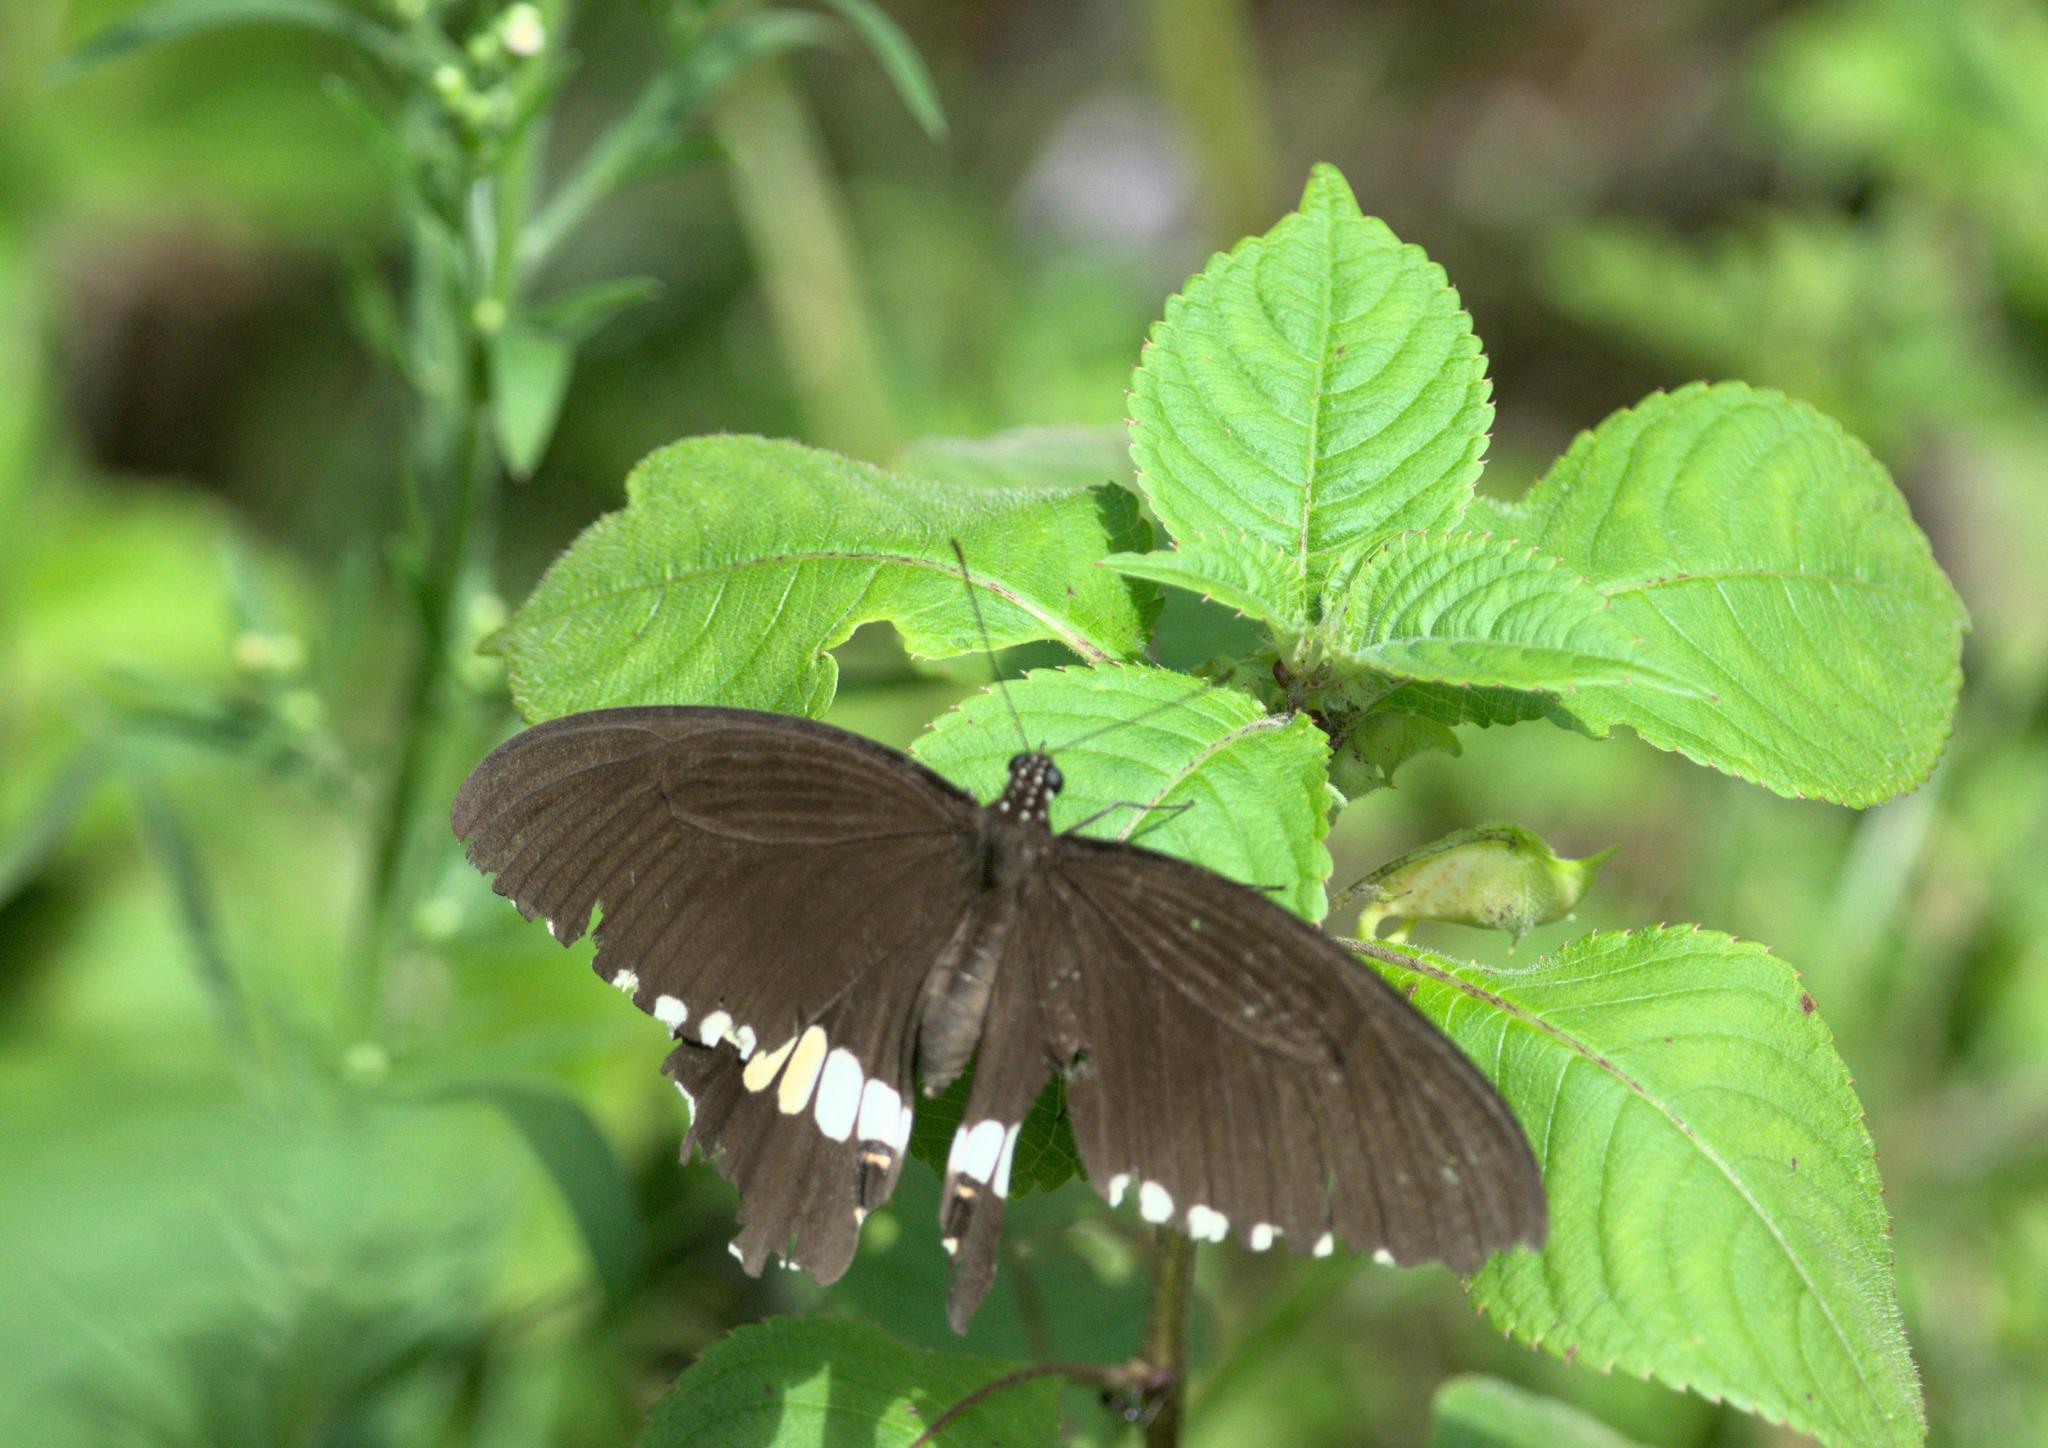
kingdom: Animalia
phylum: Arthropoda
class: Insecta
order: Lepidoptera
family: Papilionidae
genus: Papilio
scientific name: Papilio polytes
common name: Common mormon
